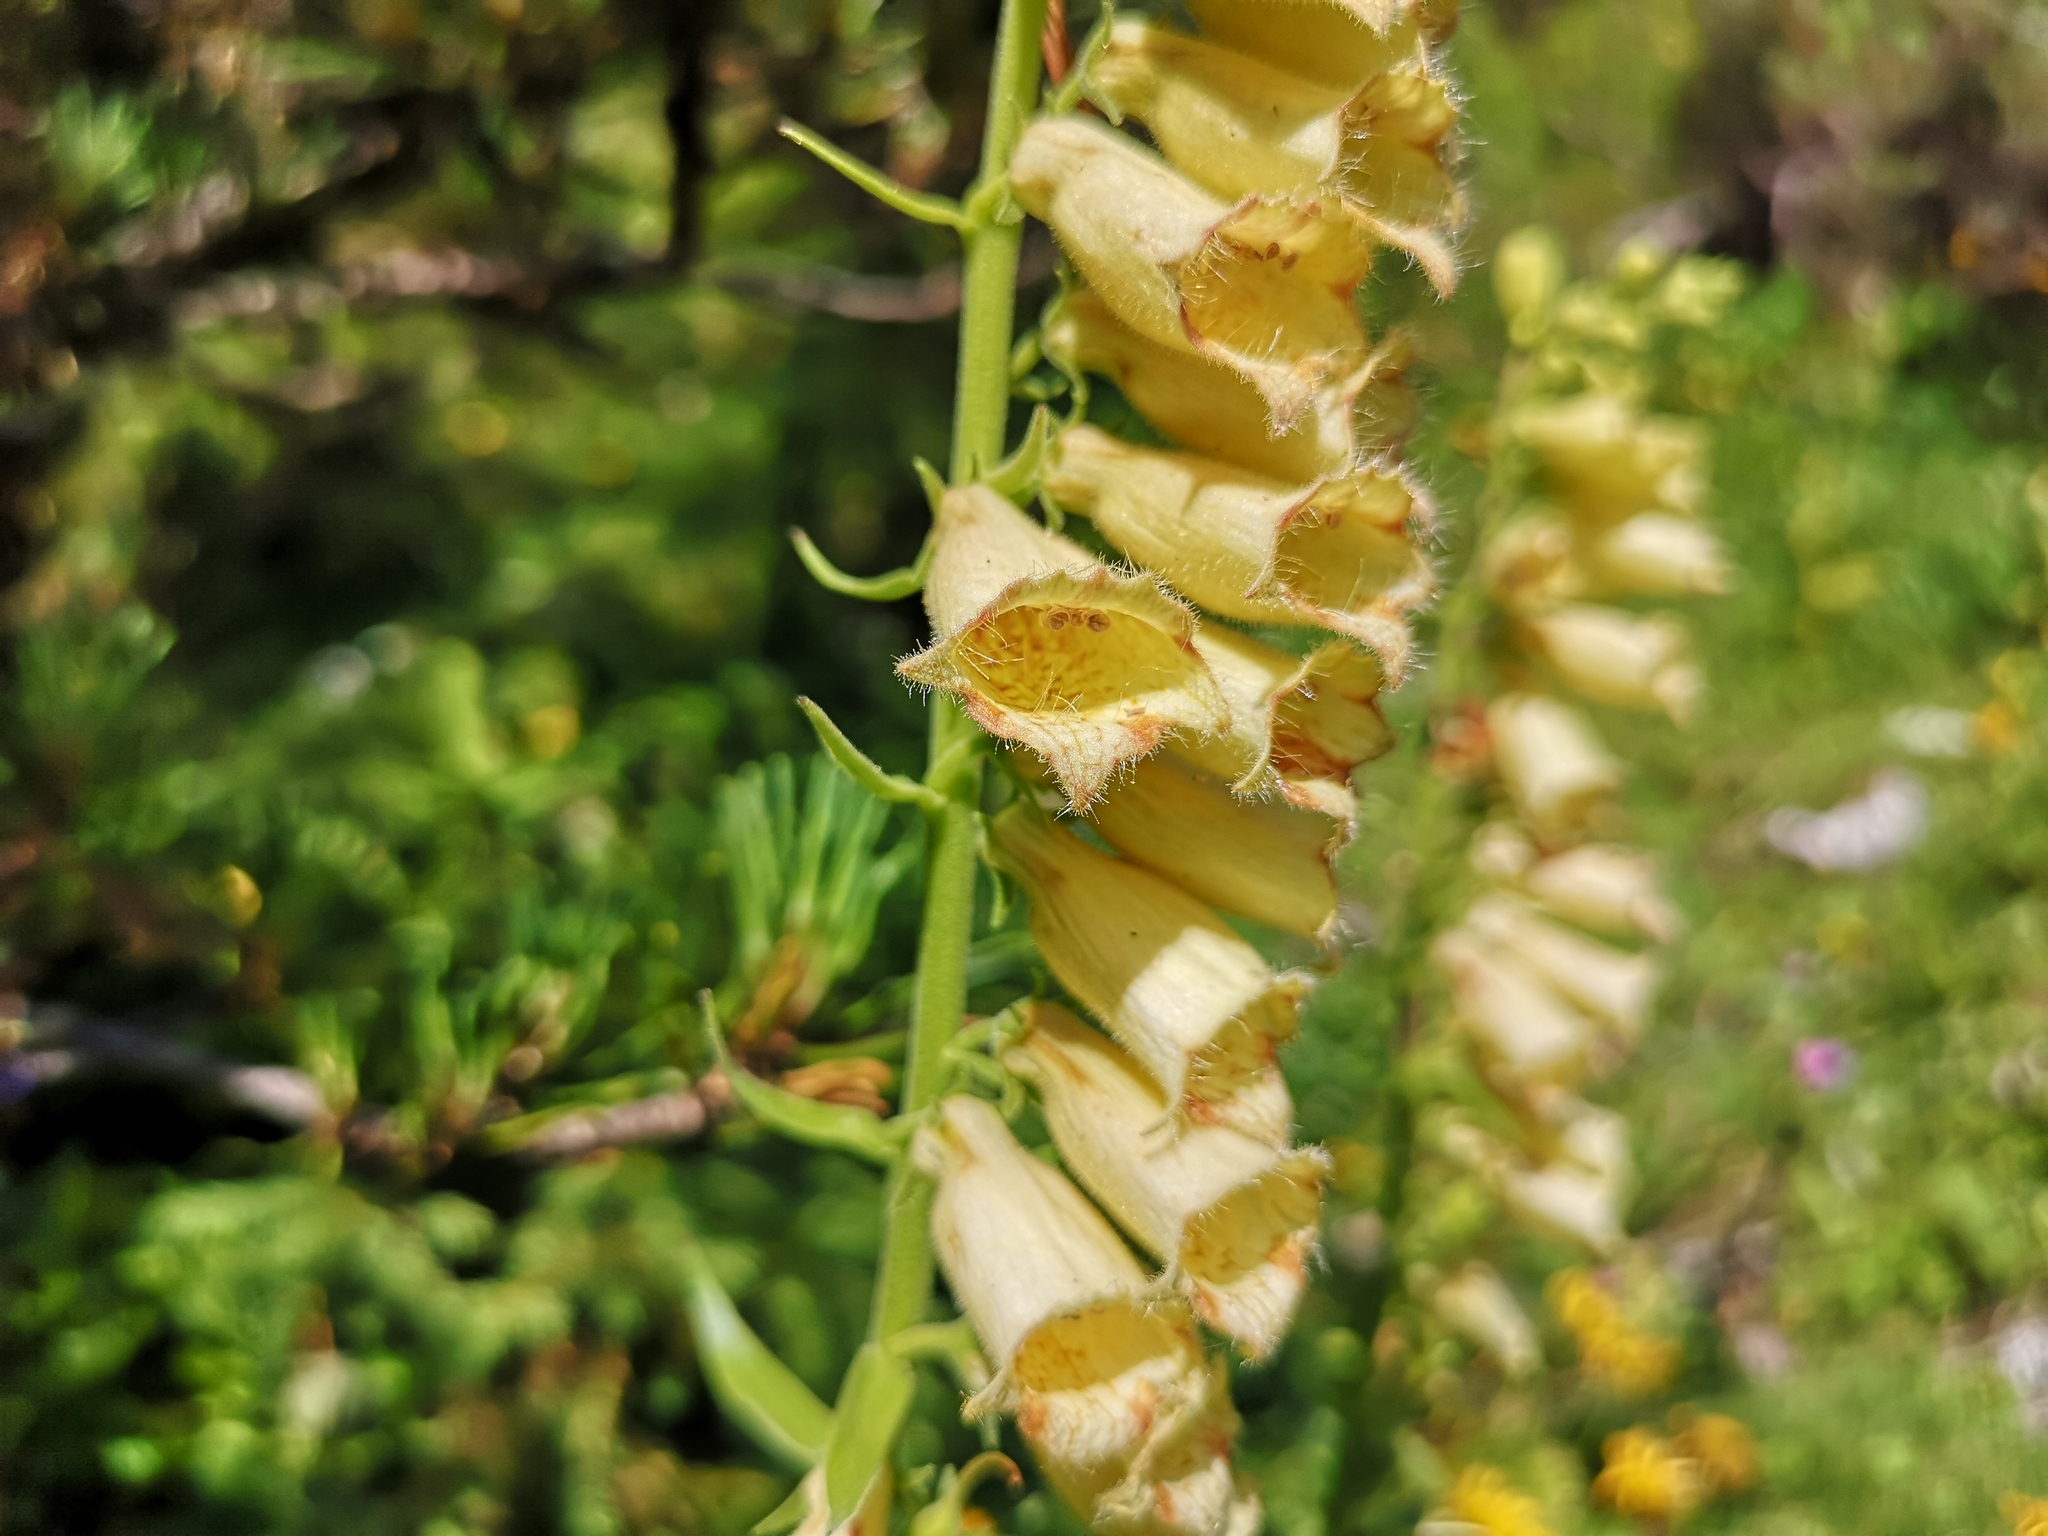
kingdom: Plantae
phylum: Tracheophyta
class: Magnoliopsida
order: Lamiales
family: Plantaginaceae
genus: Digitalis
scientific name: Digitalis grandiflora
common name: Yellow foxglove
